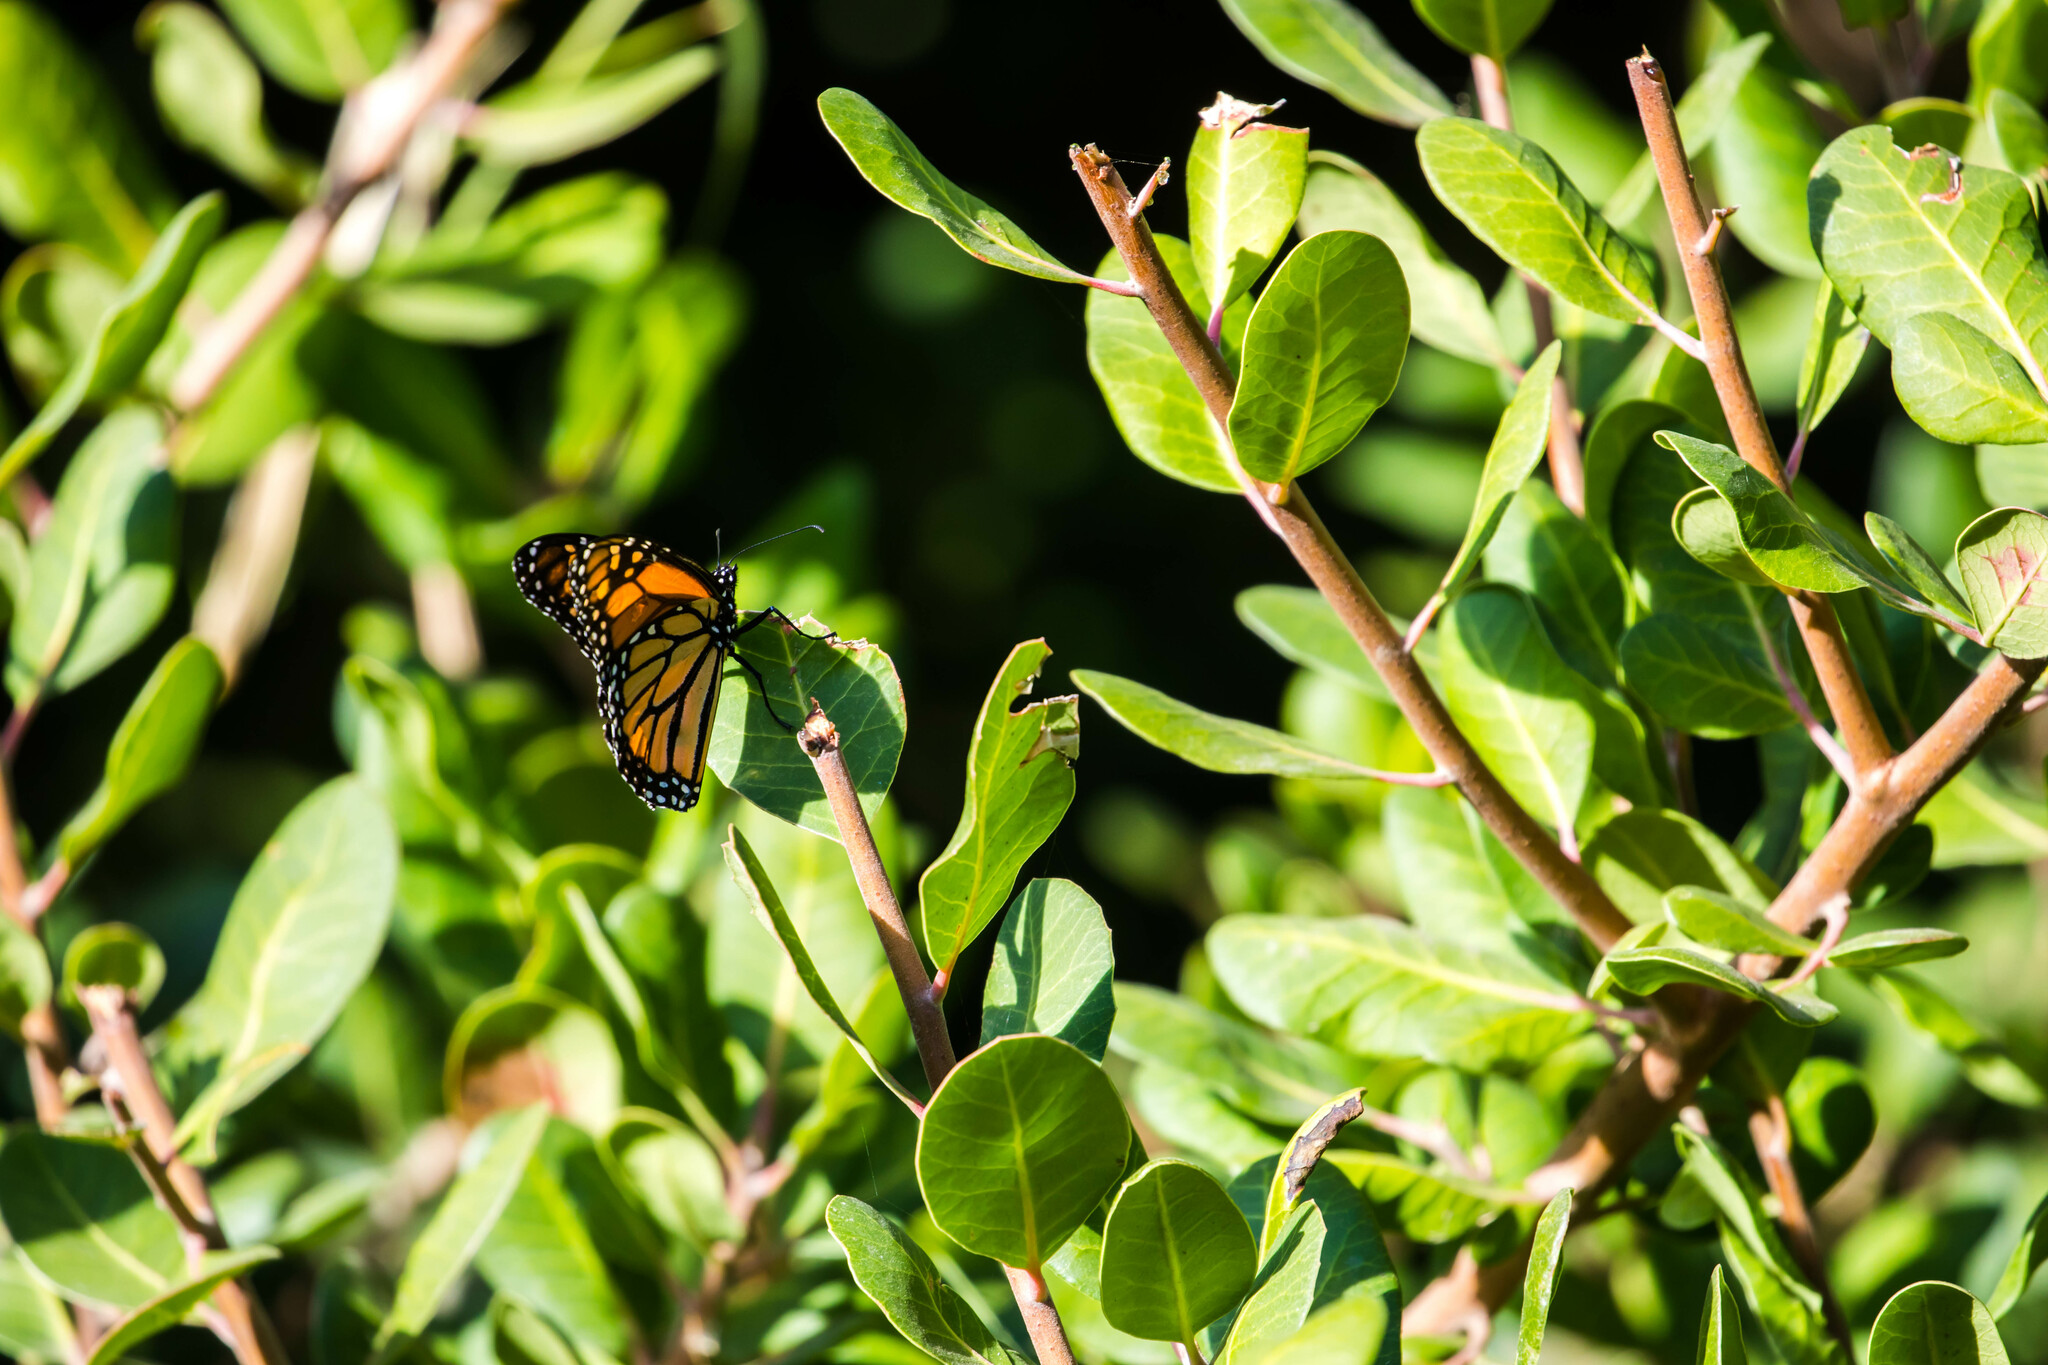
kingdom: Animalia
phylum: Arthropoda
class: Insecta
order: Lepidoptera
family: Nymphalidae
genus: Danaus
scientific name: Danaus plexippus
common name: Monarch
